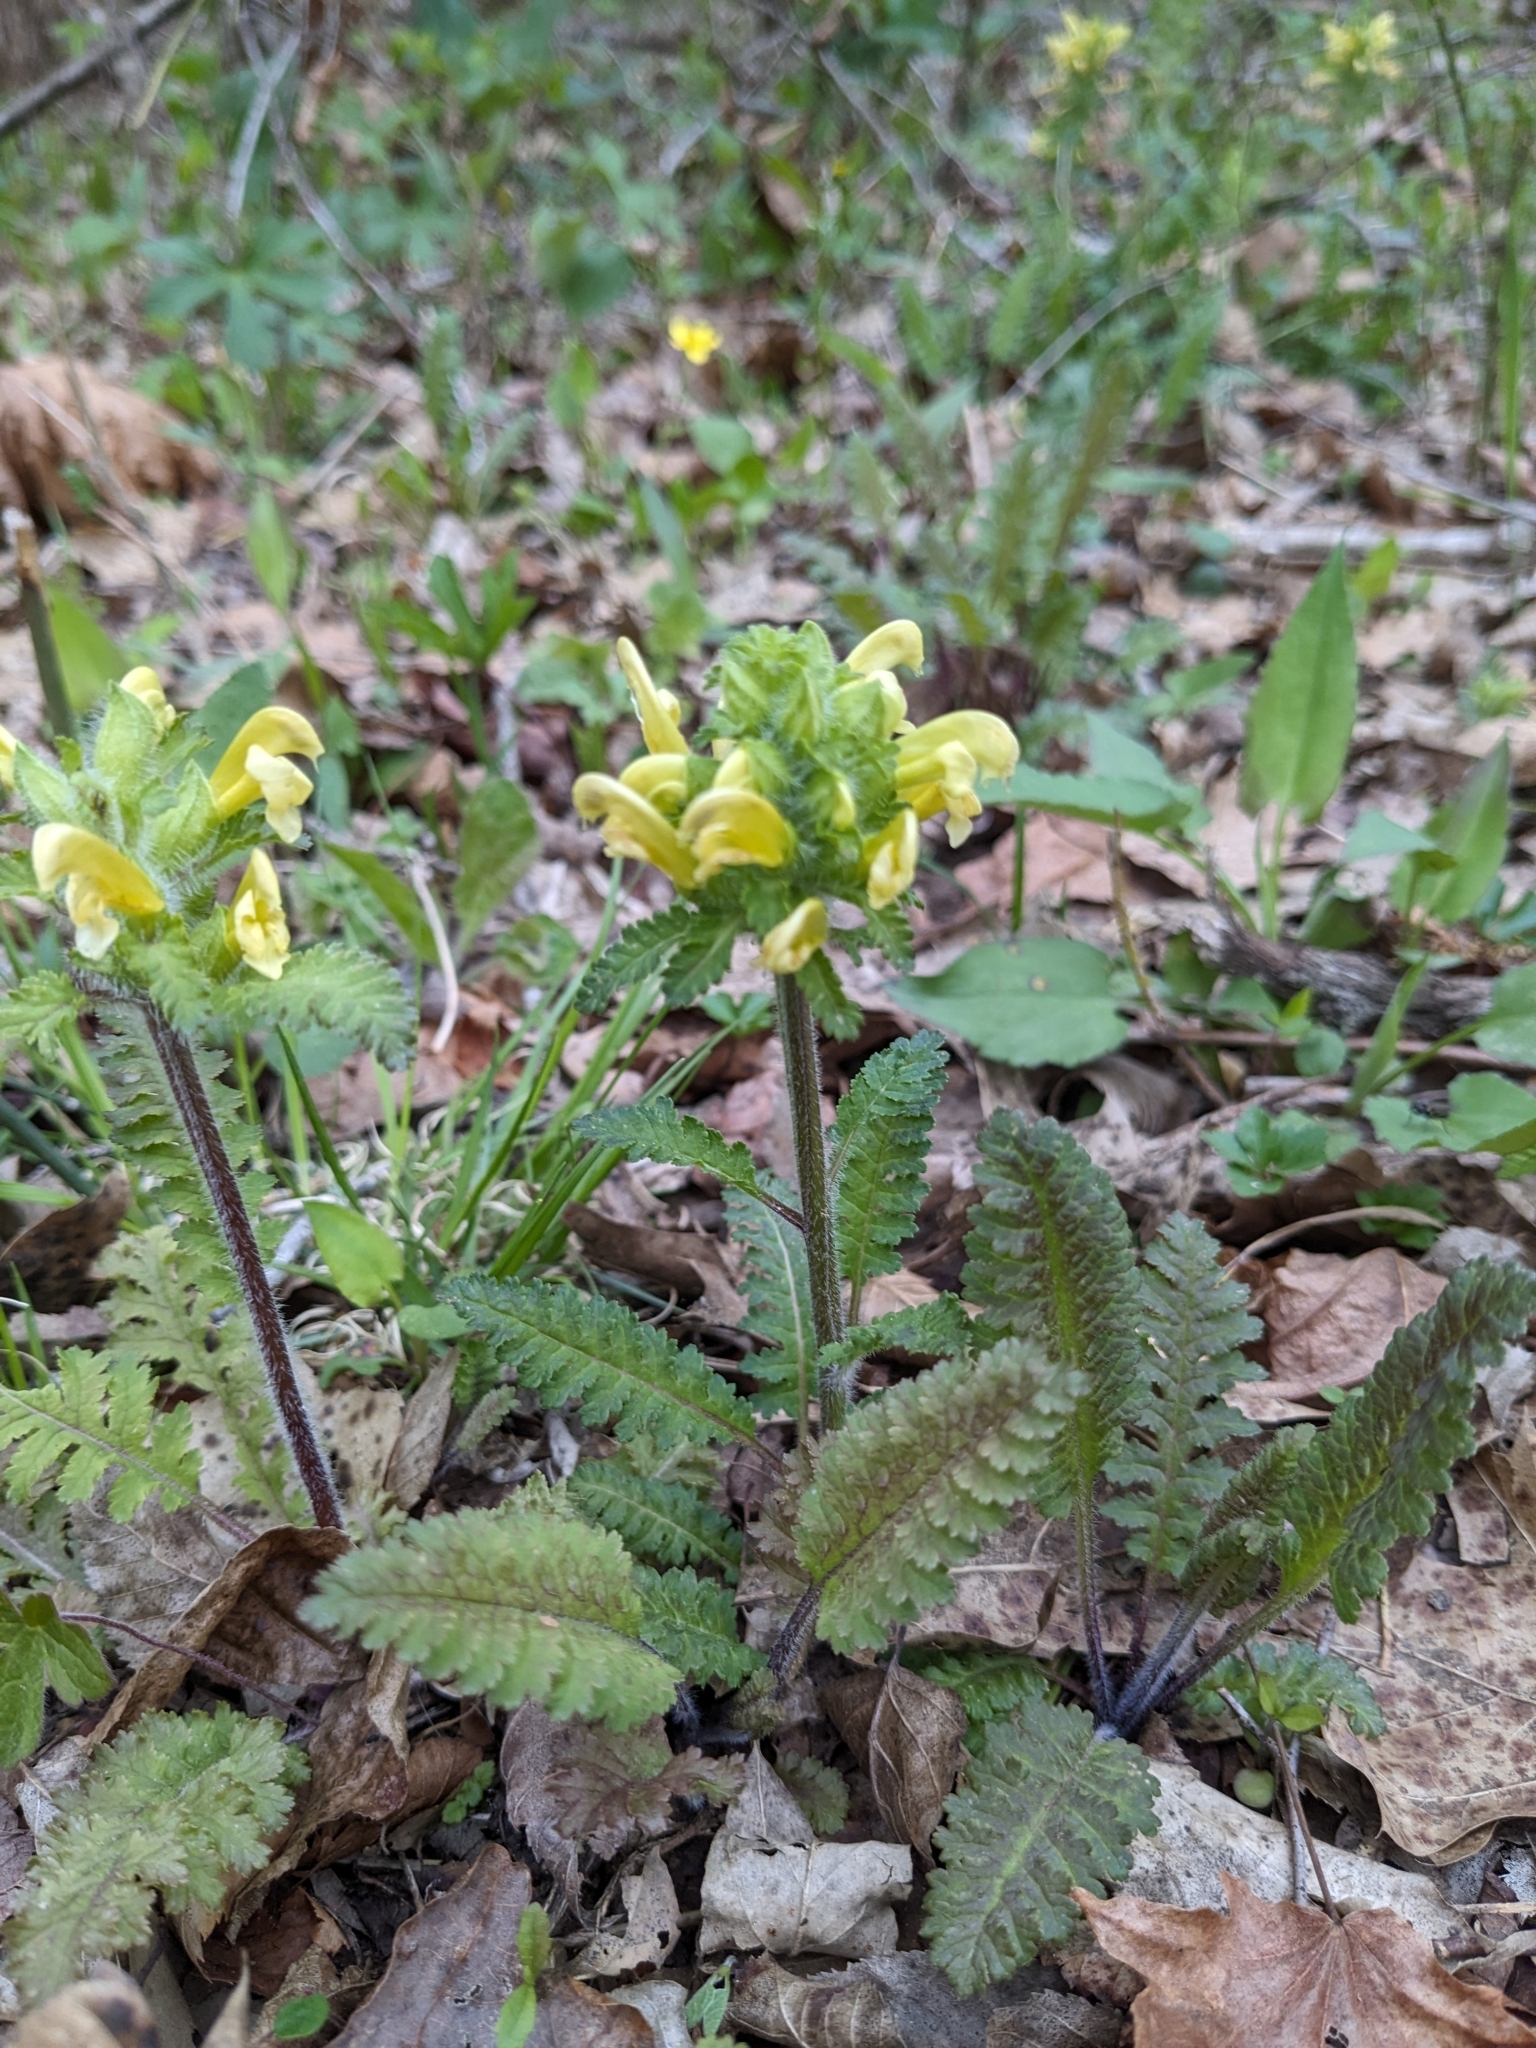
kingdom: Plantae
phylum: Tracheophyta
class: Magnoliopsida
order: Lamiales
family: Orobanchaceae
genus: Pedicularis
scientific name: Pedicularis canadensis
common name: Early lousewort
